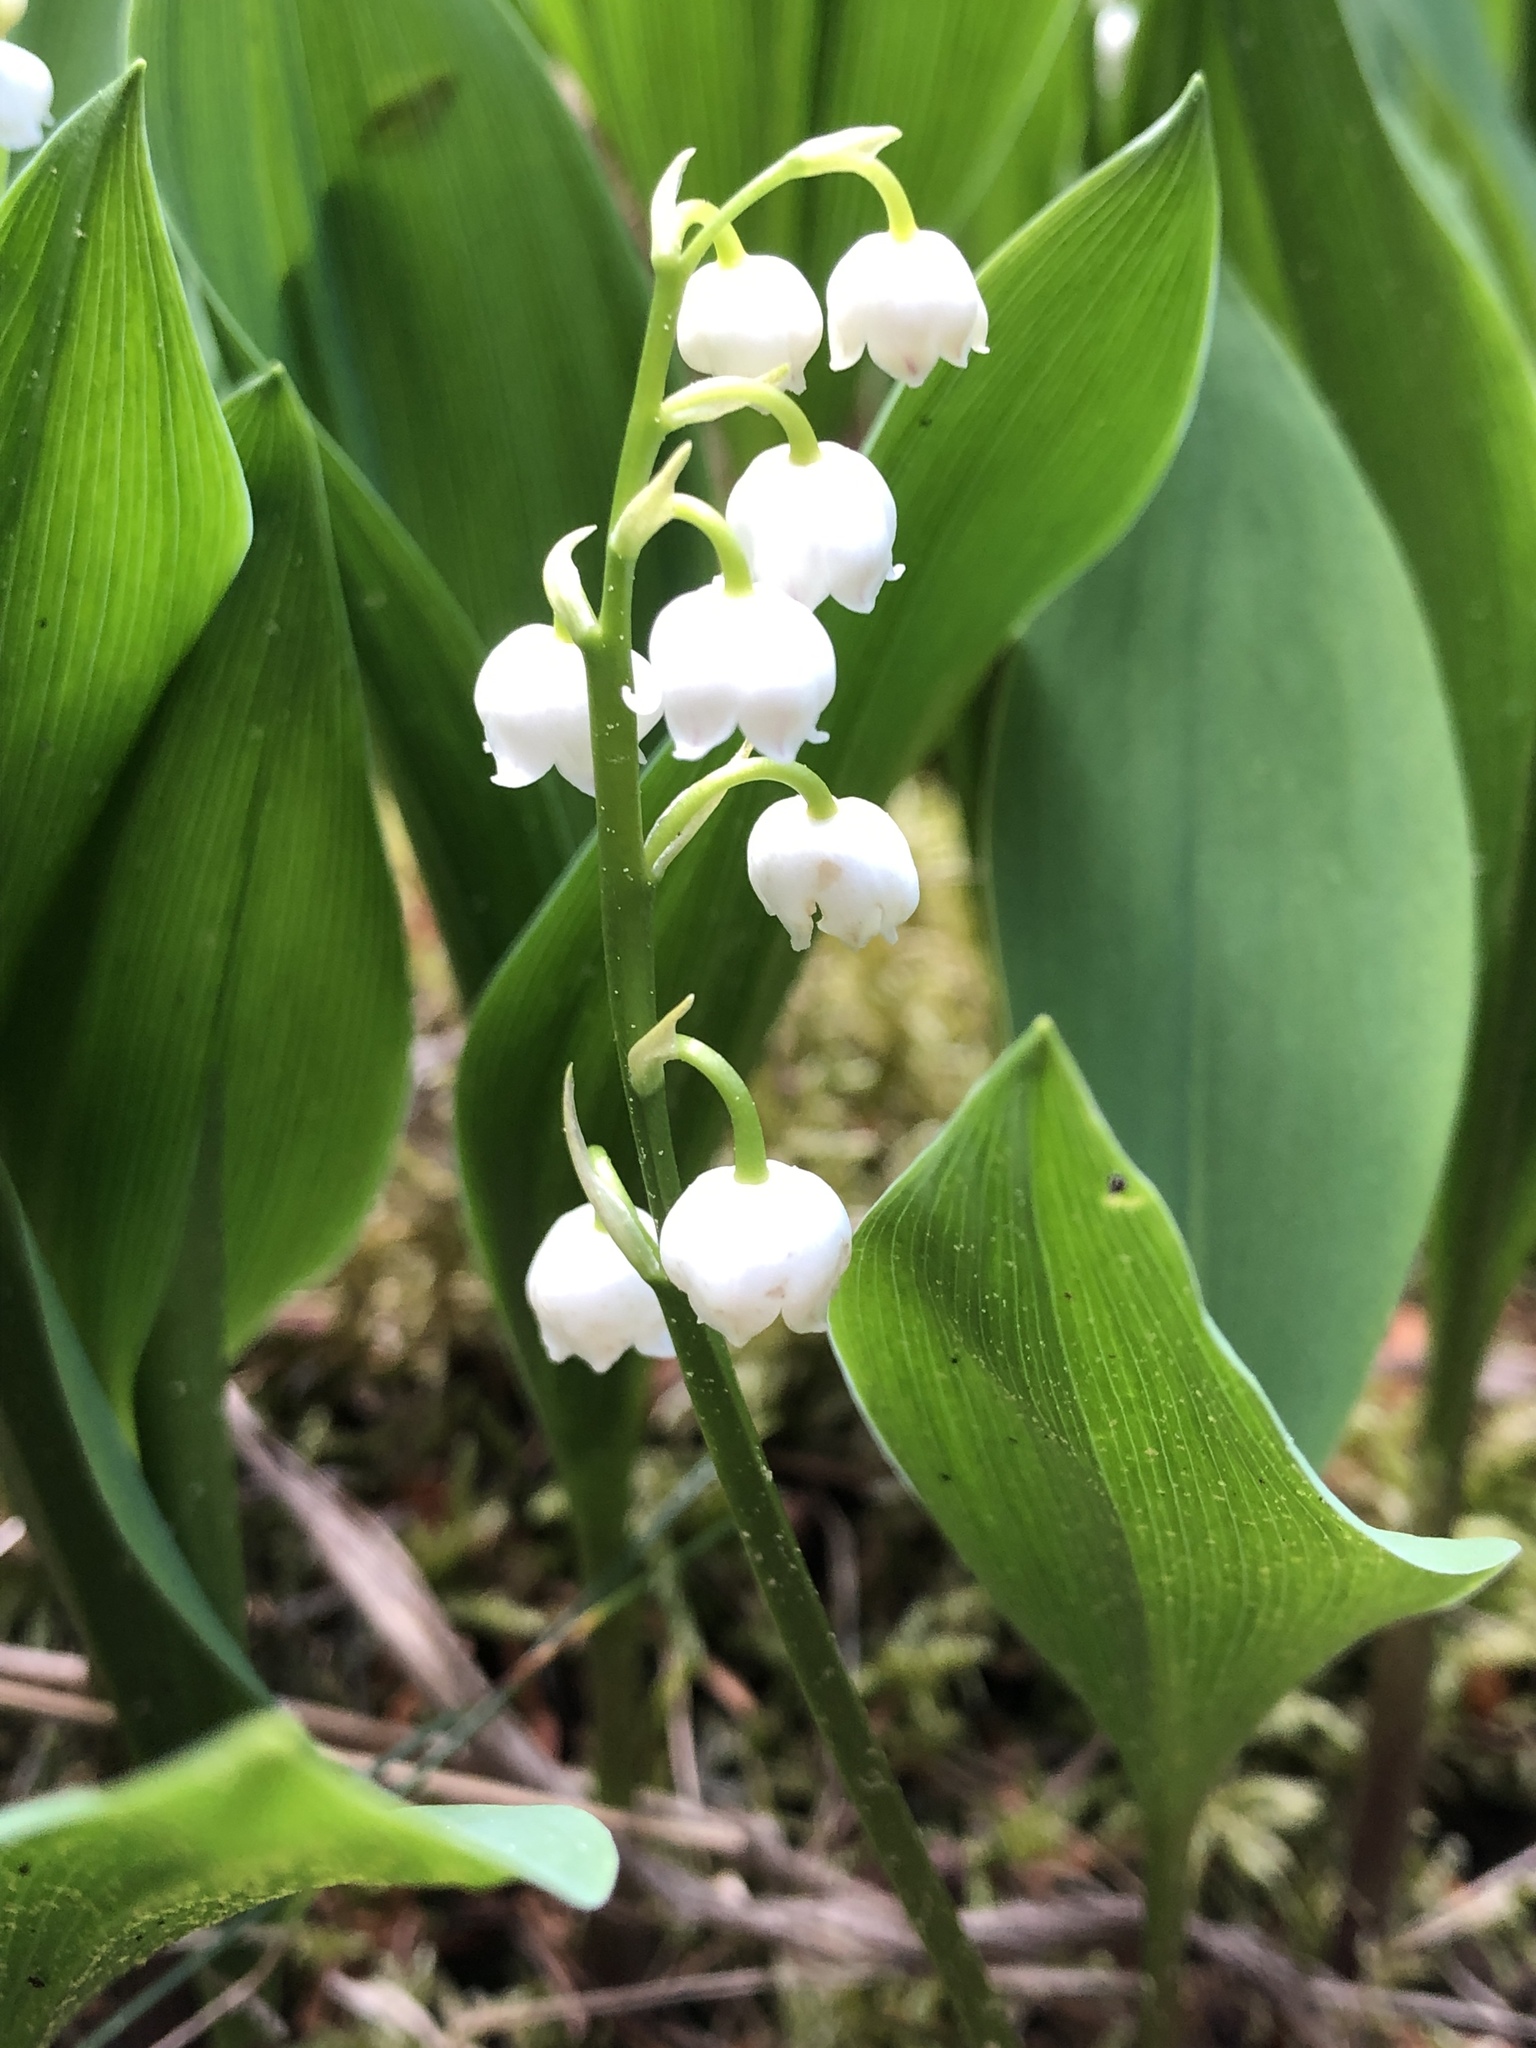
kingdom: Plantae
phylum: Tracheophyta
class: Liliopsida
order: Asparagales
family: Asparagaceae
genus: Convallaria
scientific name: Convallaria majalis
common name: Lily-of-the-valley
